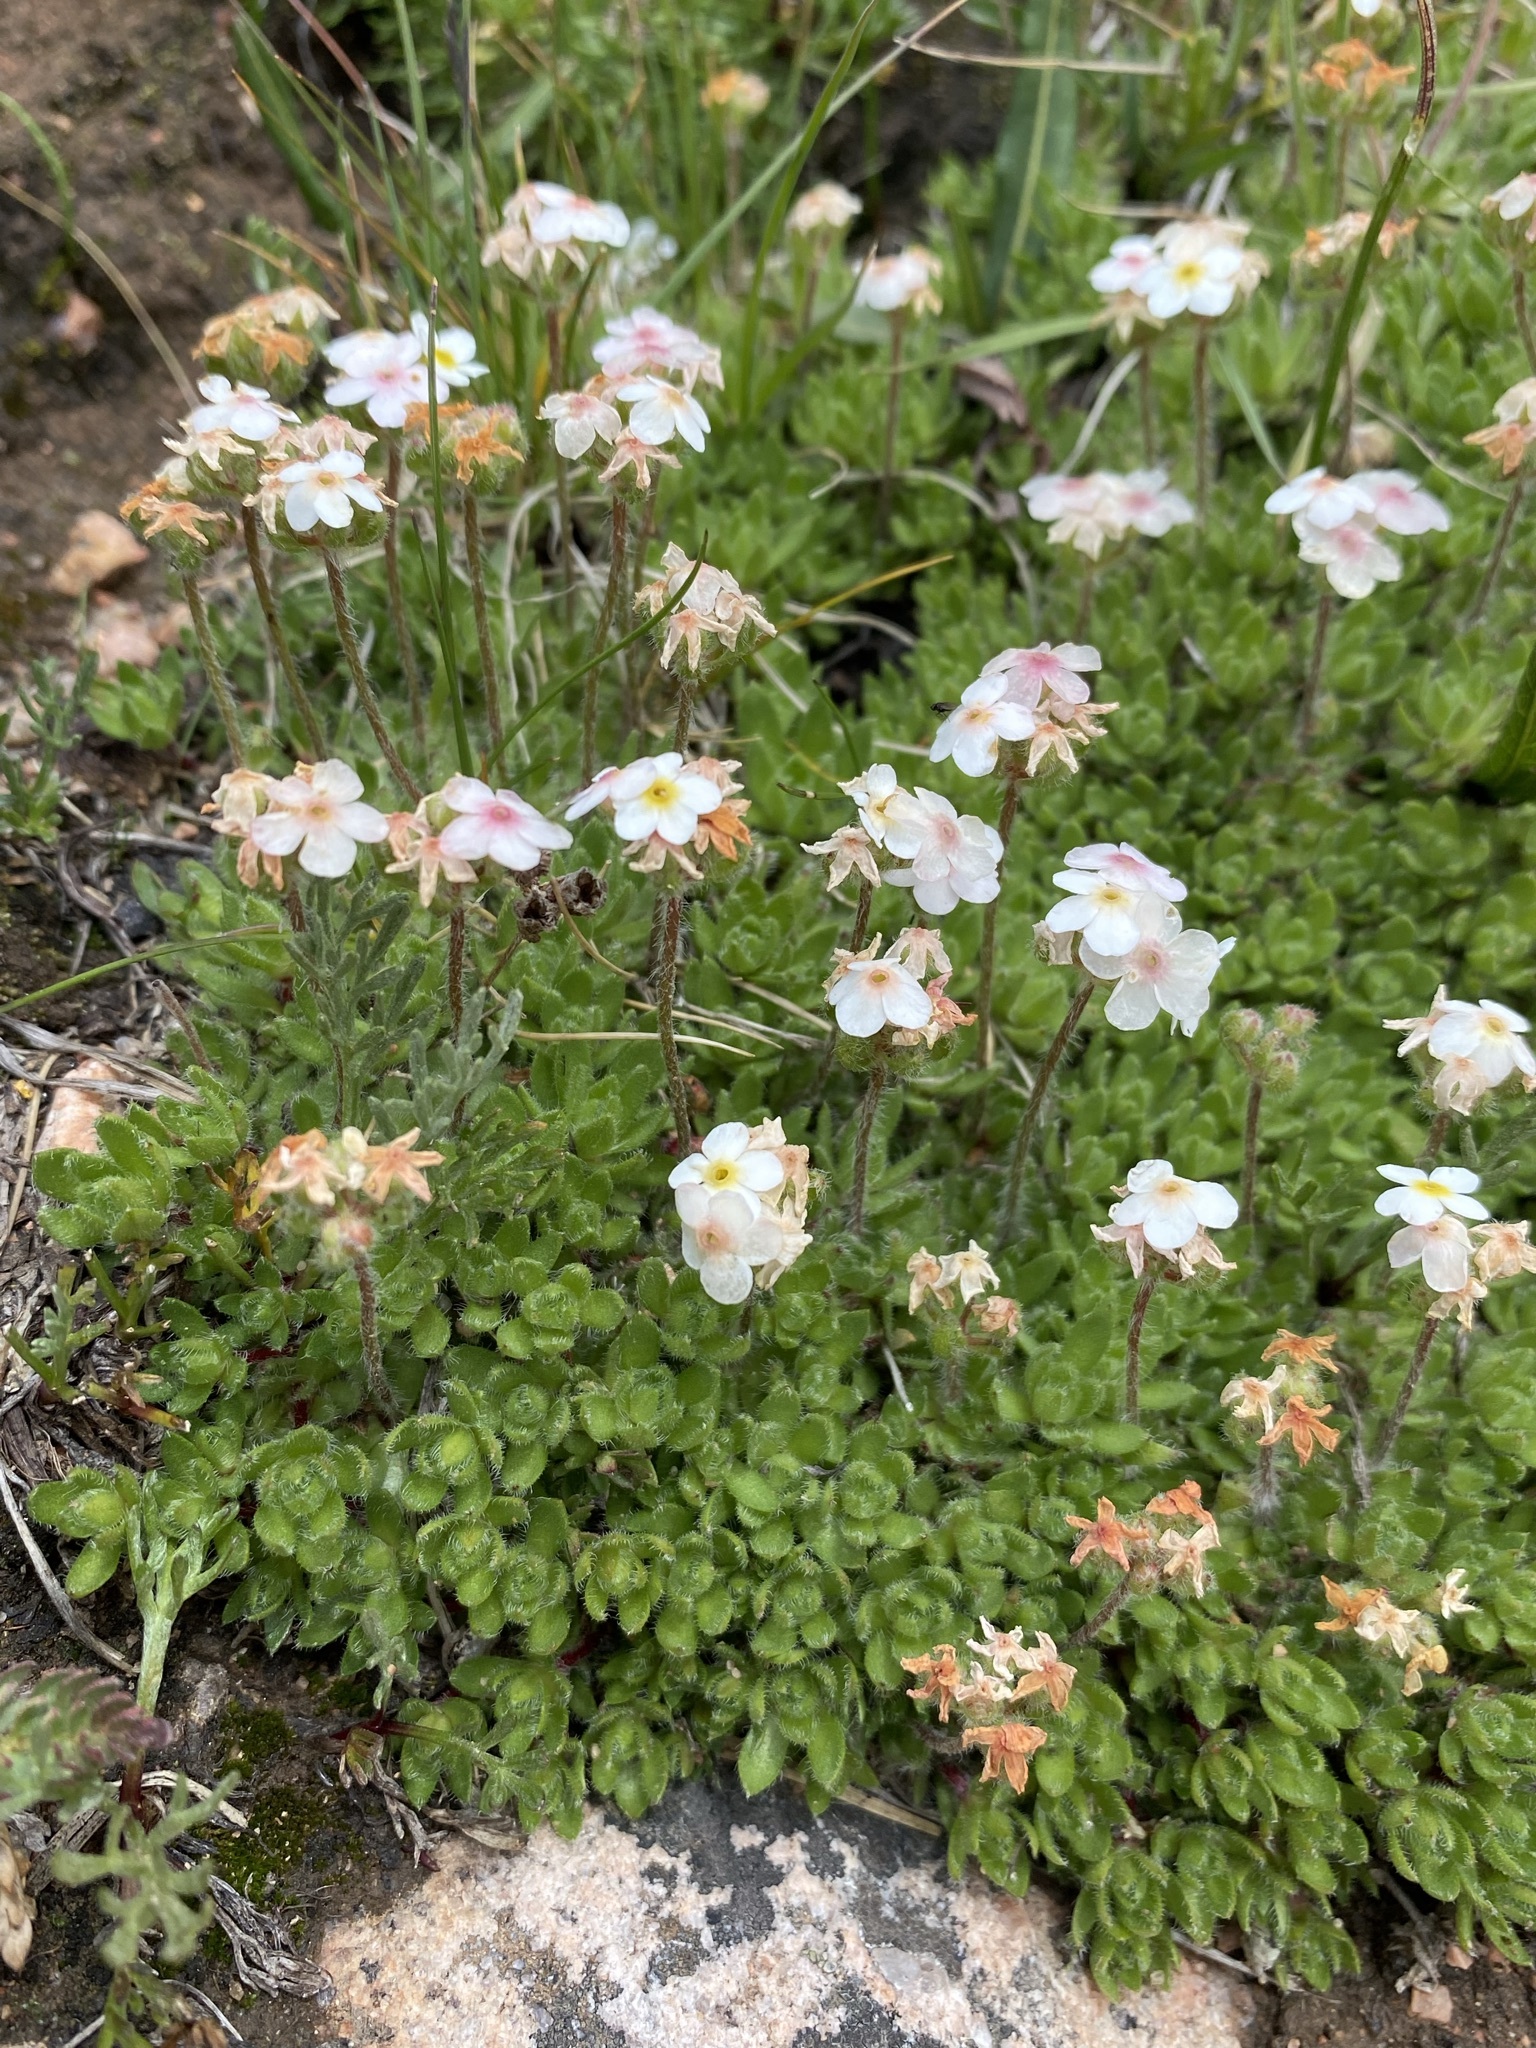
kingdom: Plantae
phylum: Tracheophyta
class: Magnoliopsida
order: Ericales
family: Primulaceae
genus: Androsace
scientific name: Androsace chamaejasme
